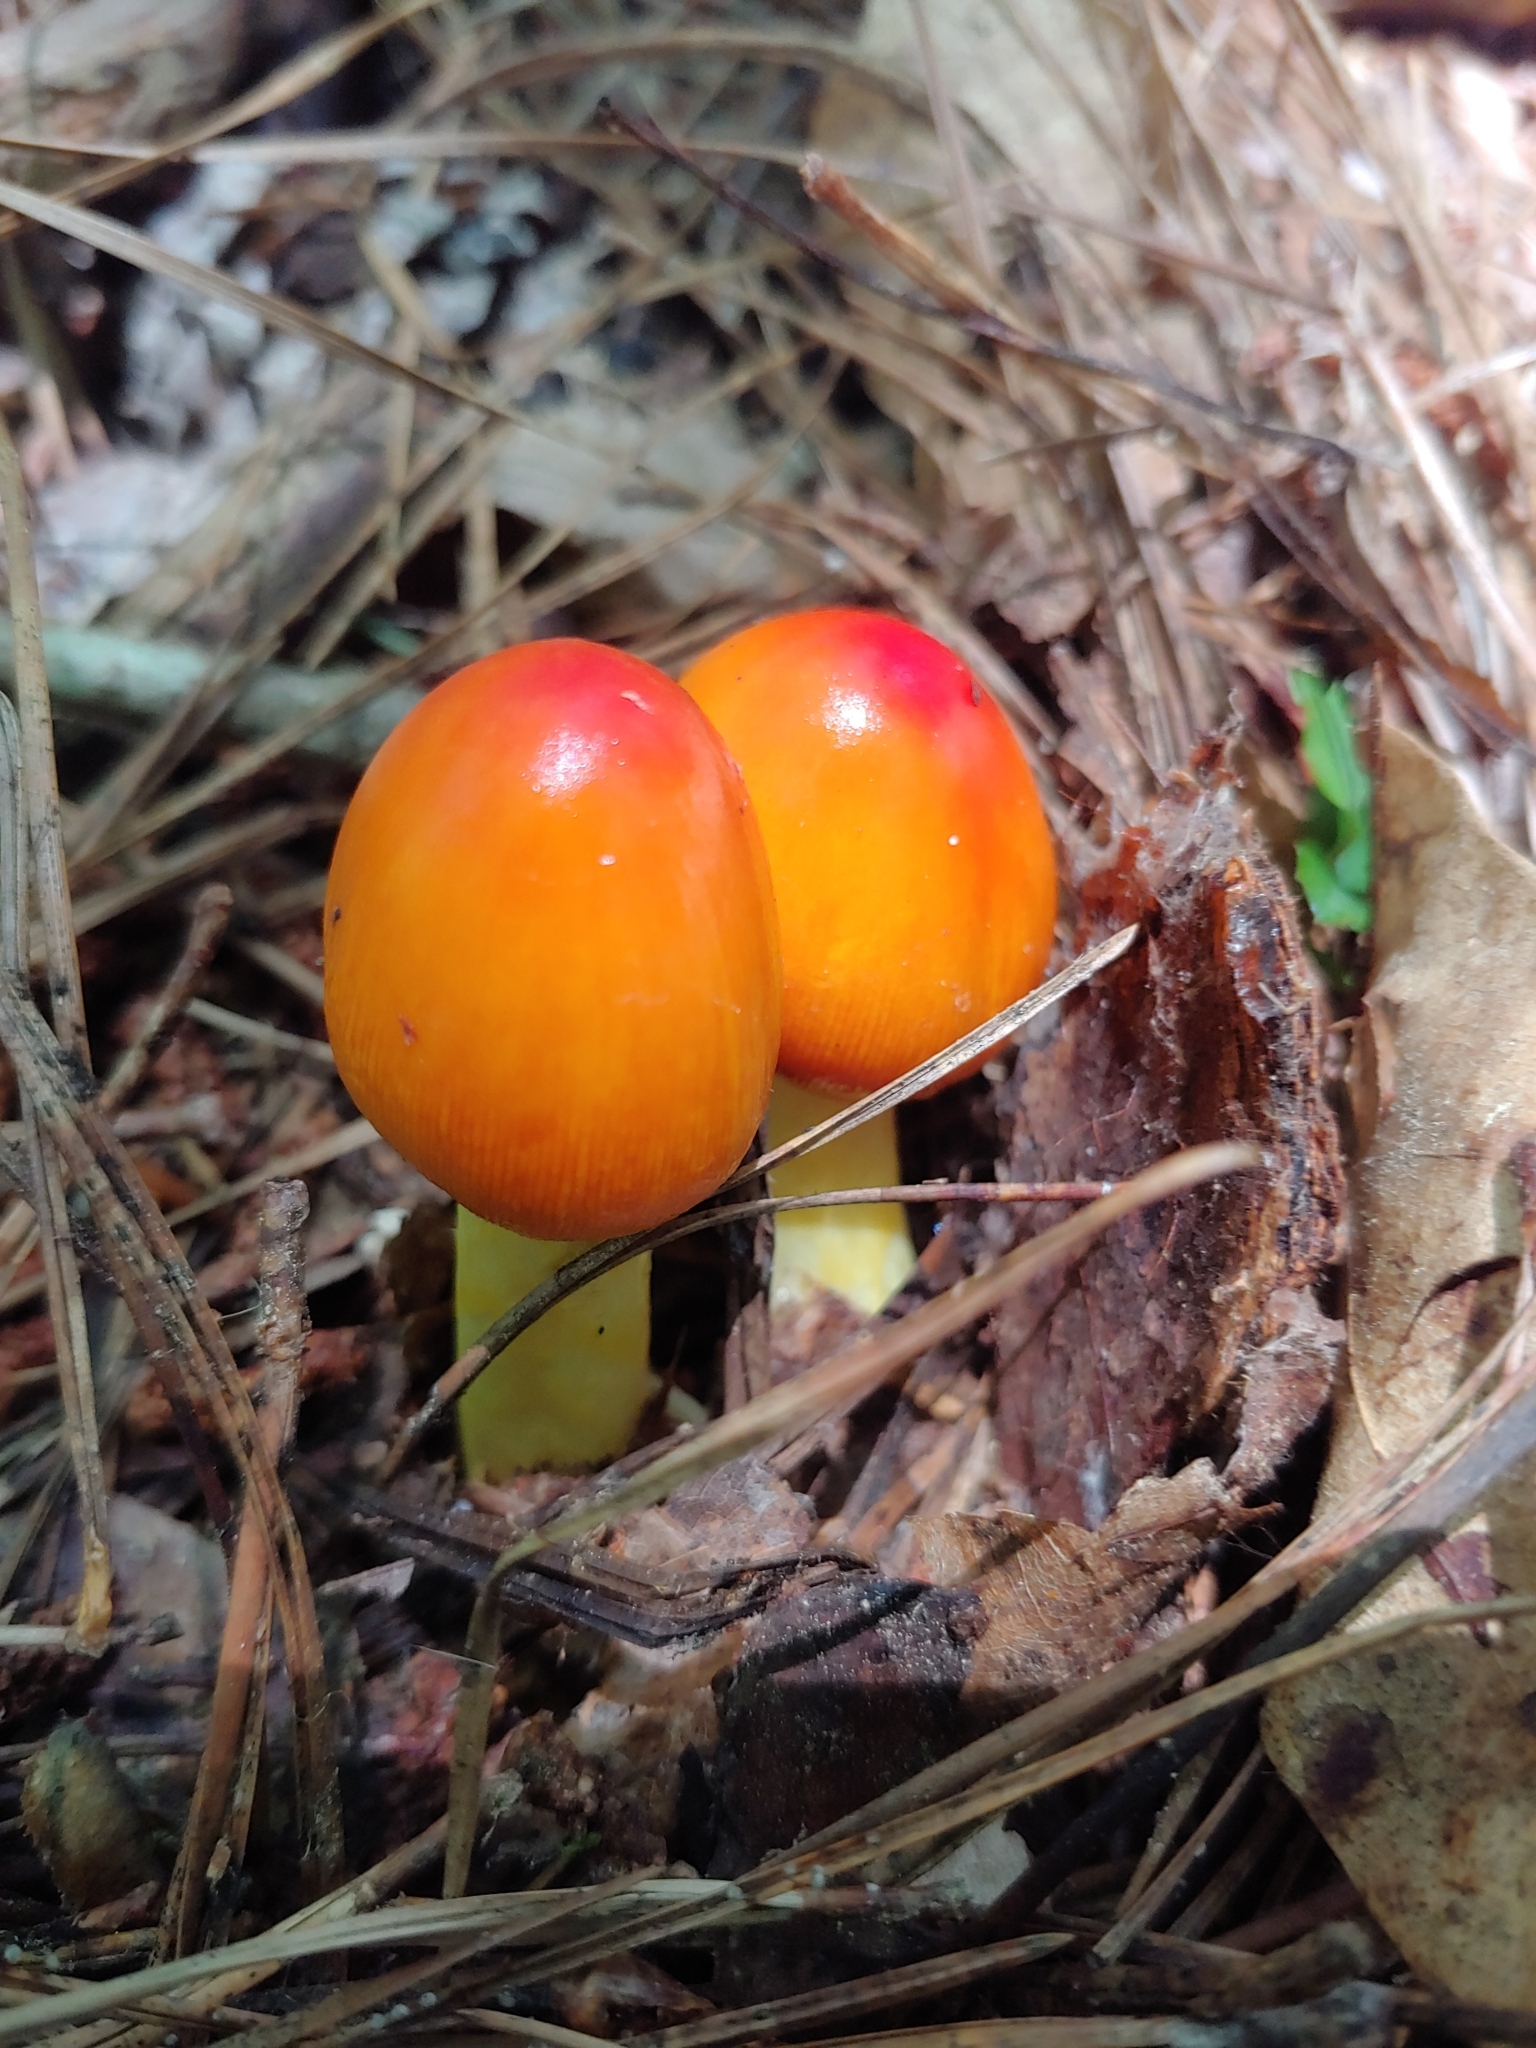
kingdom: Fungi
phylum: Basidiomycota
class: Agaricomycetes
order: Agaricales
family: Amanitaceae
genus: Amanita
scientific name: Amanita jacksonii
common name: Jackson's slender caesar
